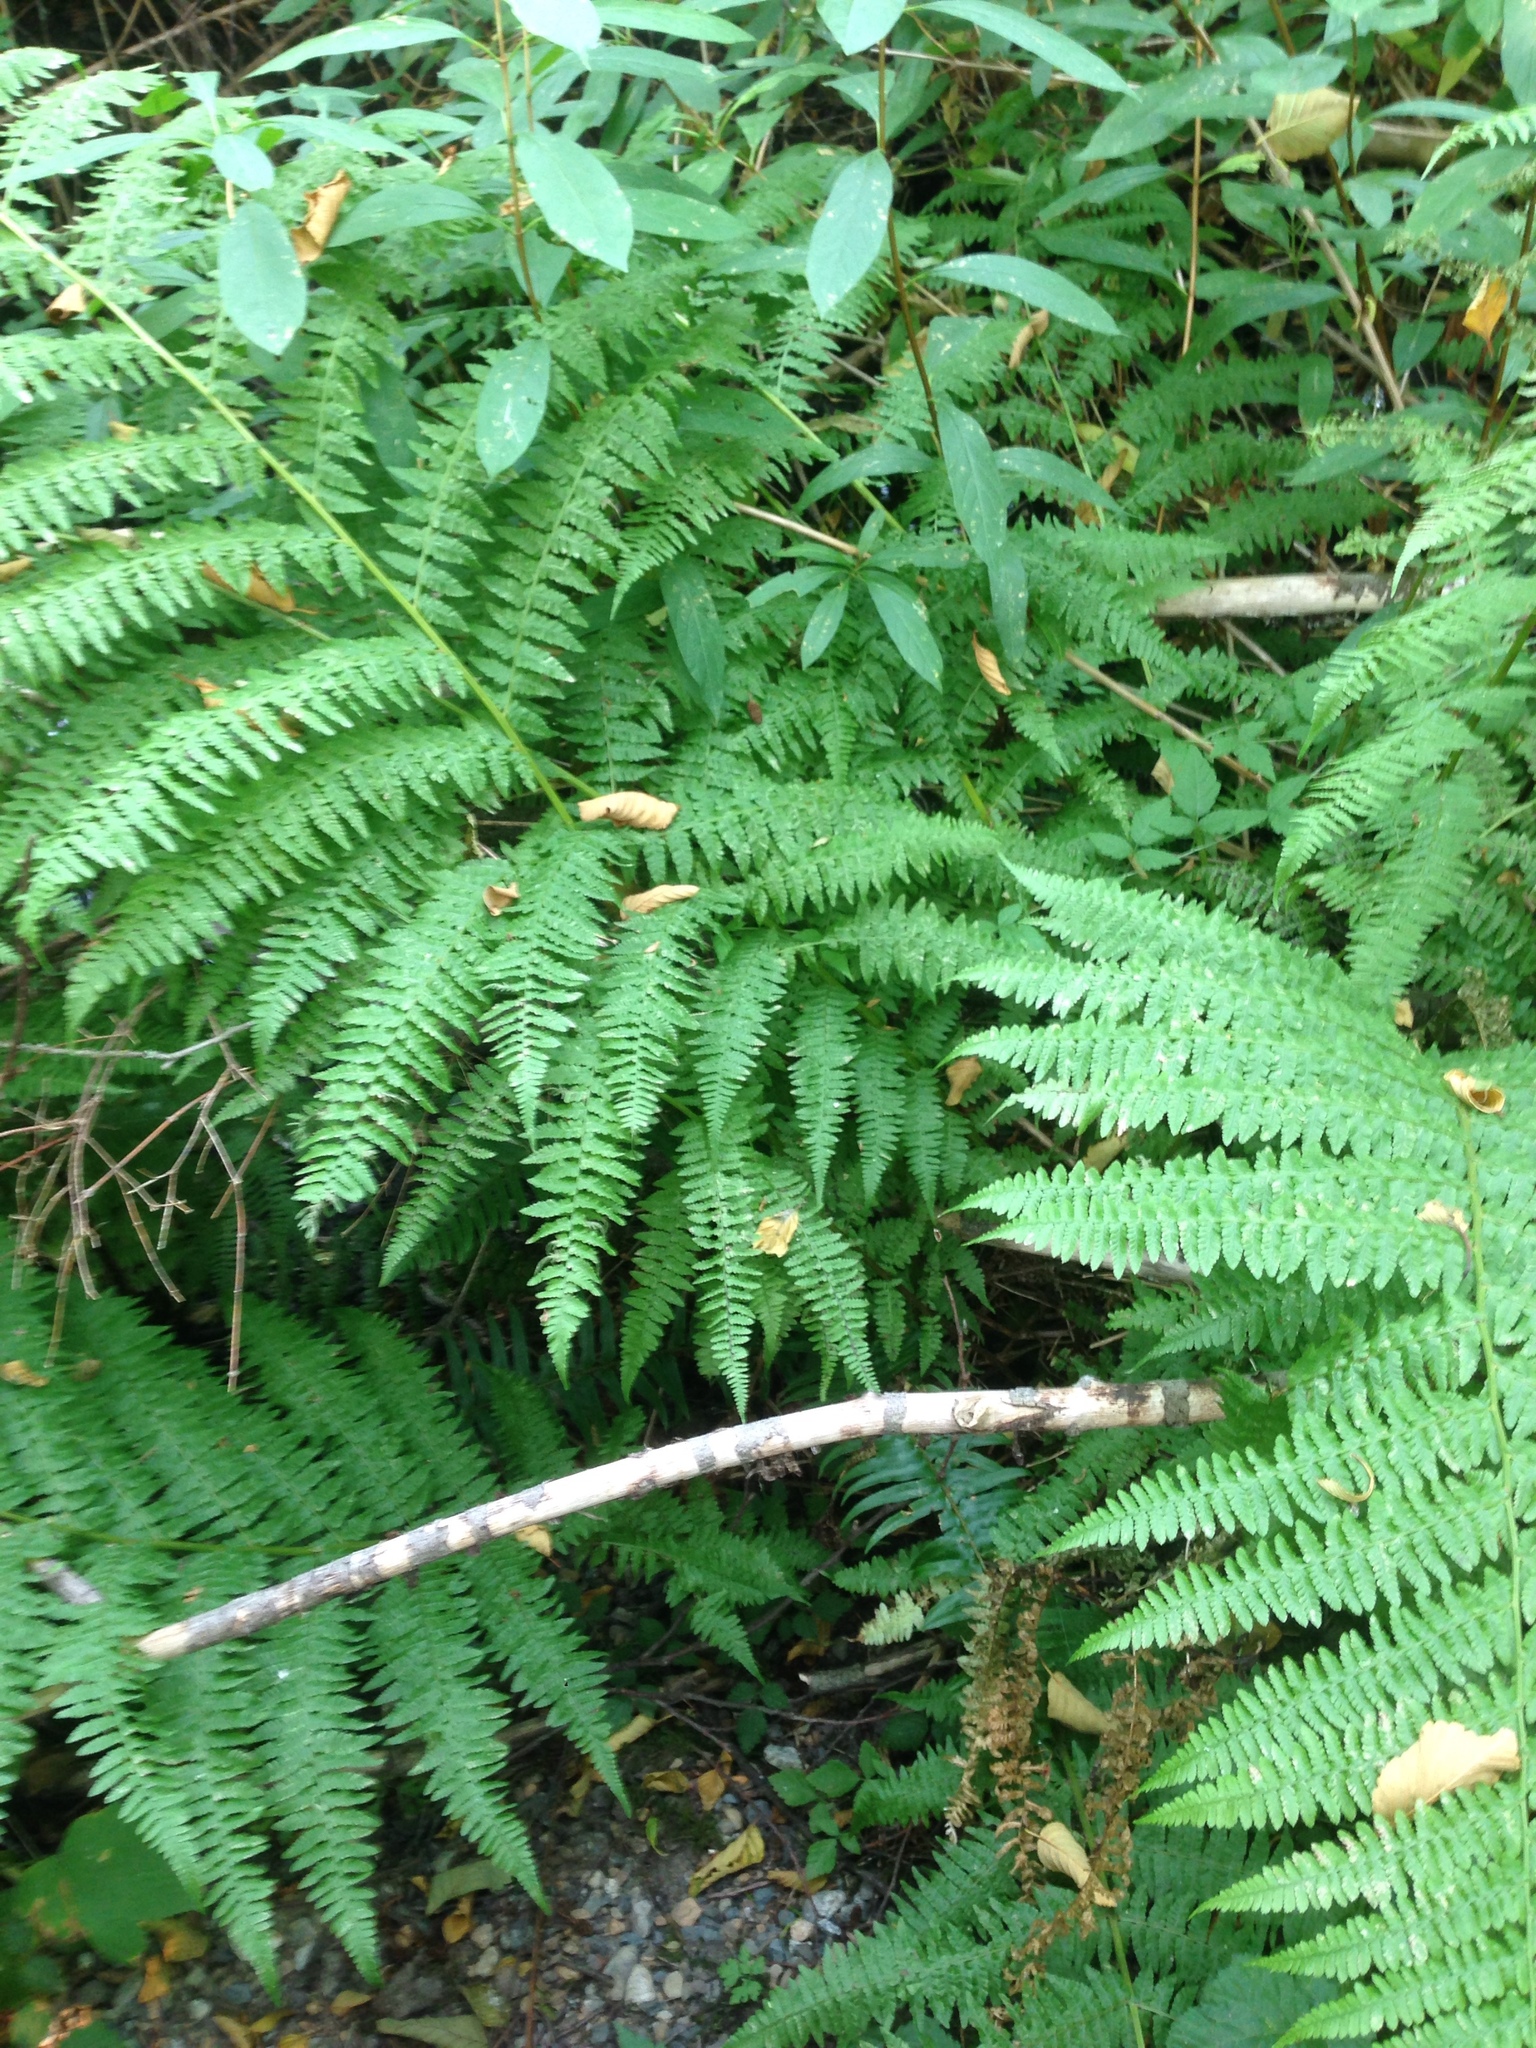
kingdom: Plantae
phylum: Tracheophyta
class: Polypodiopsida
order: Polypodiales
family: Athyriaceae
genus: Athyrium
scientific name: Athyrium cyclosorum
